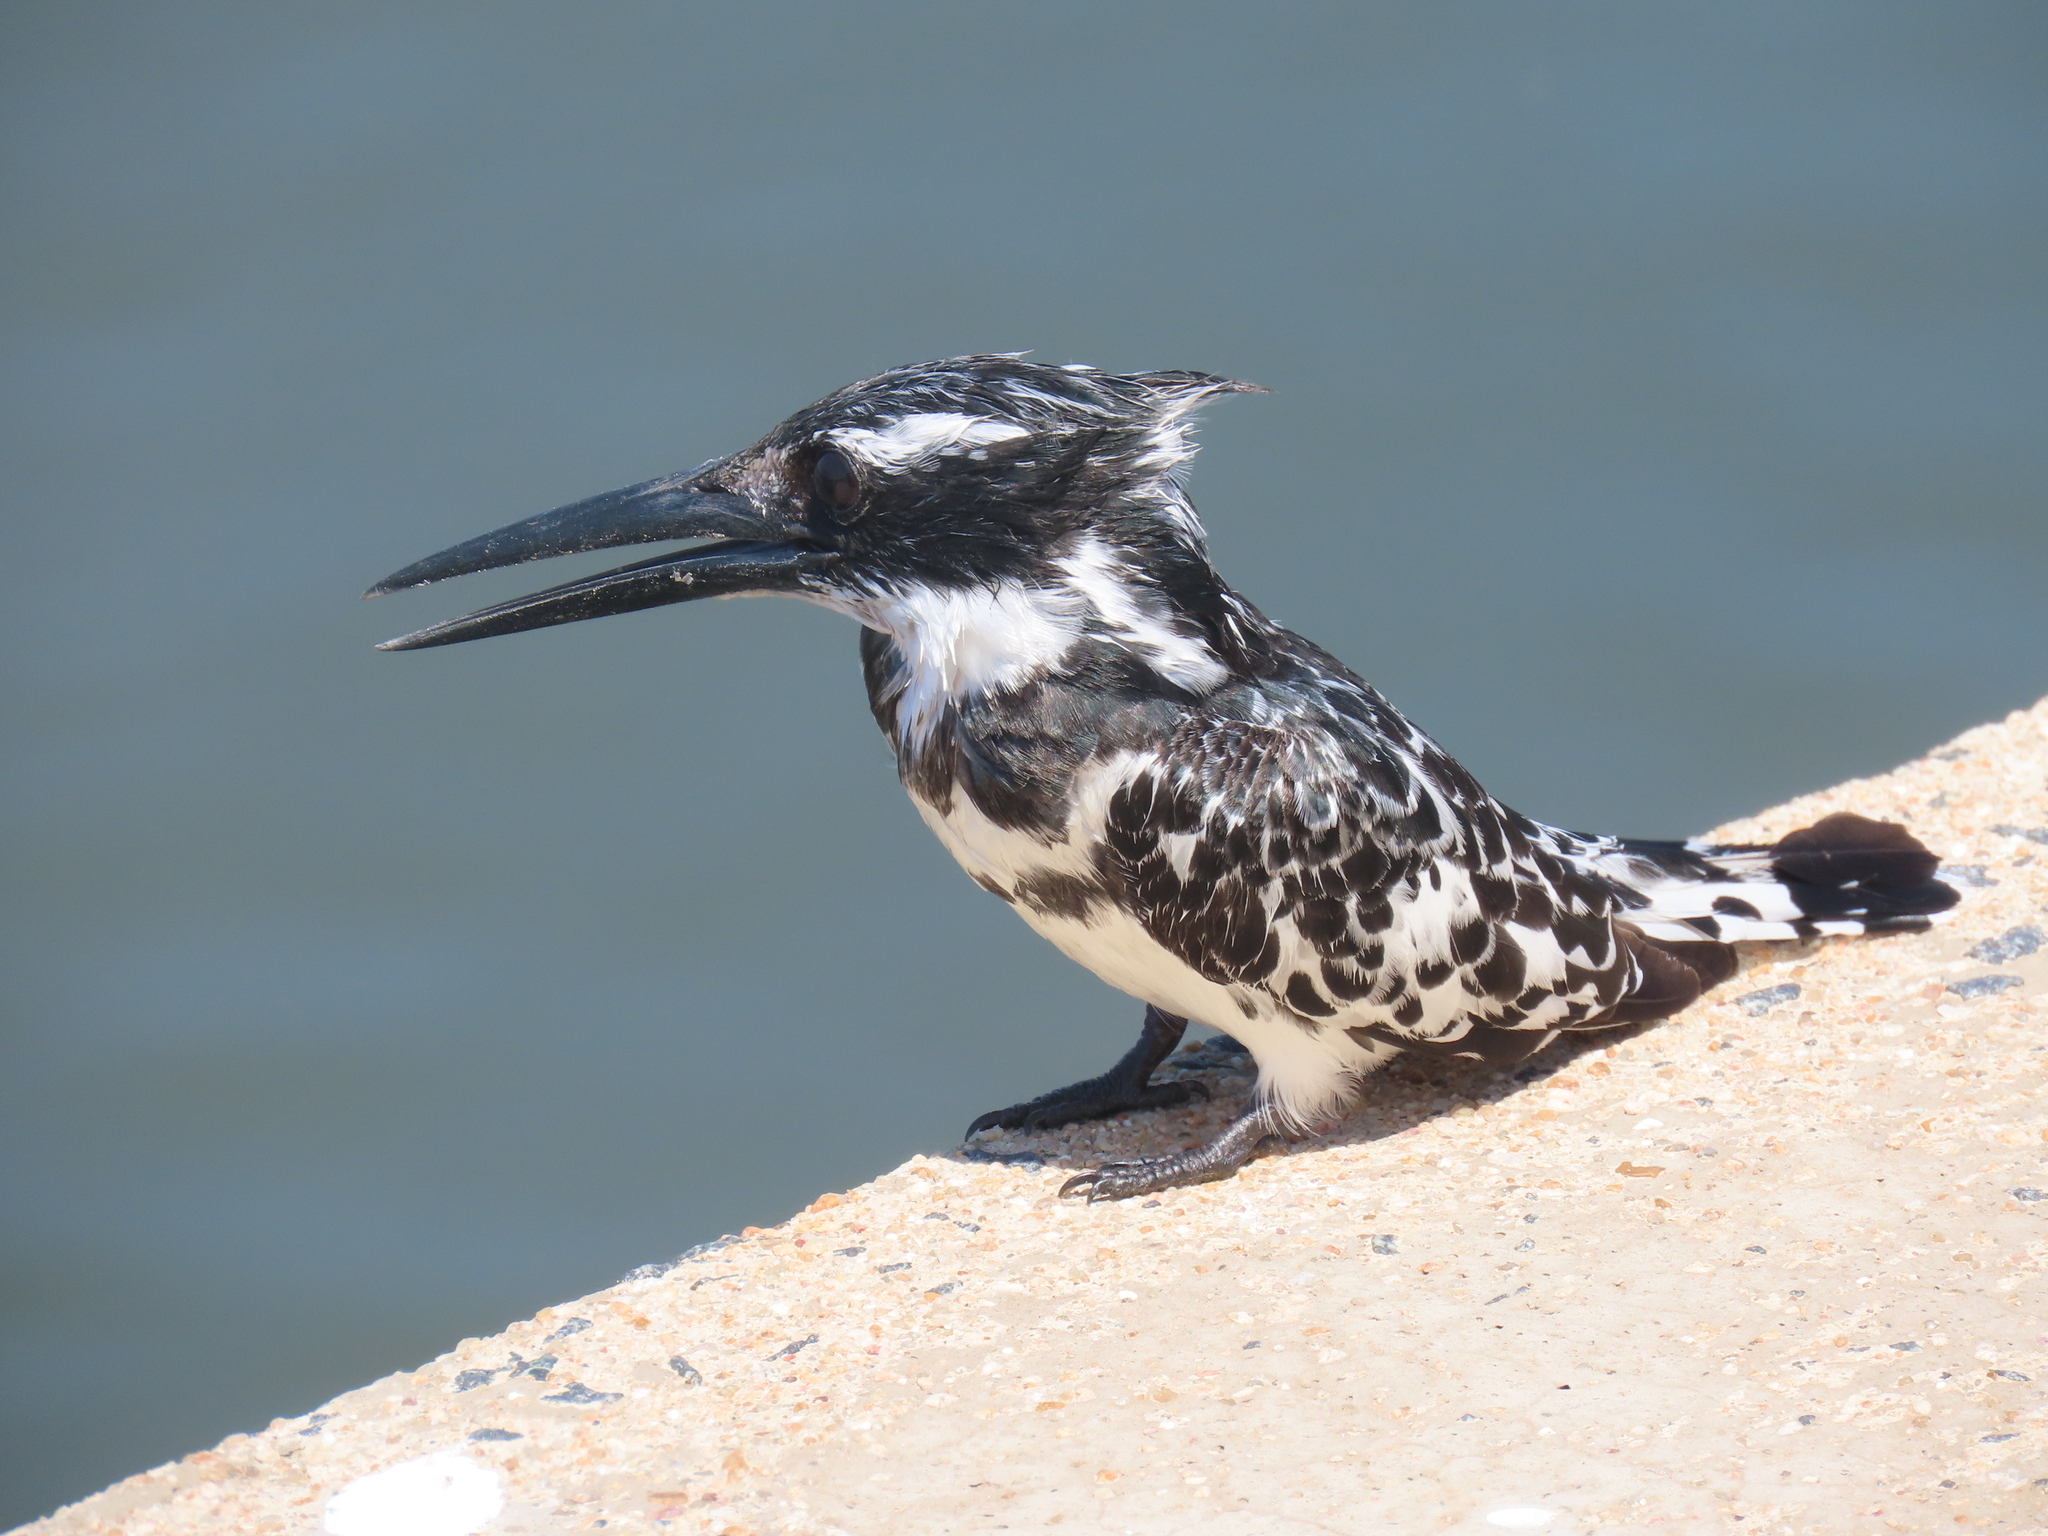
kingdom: Animalia
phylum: Chordata
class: Aves
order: Coraciiformes
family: Alcedinidae
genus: Ceryle
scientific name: Ceryle rudis
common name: Pied kingfisher
